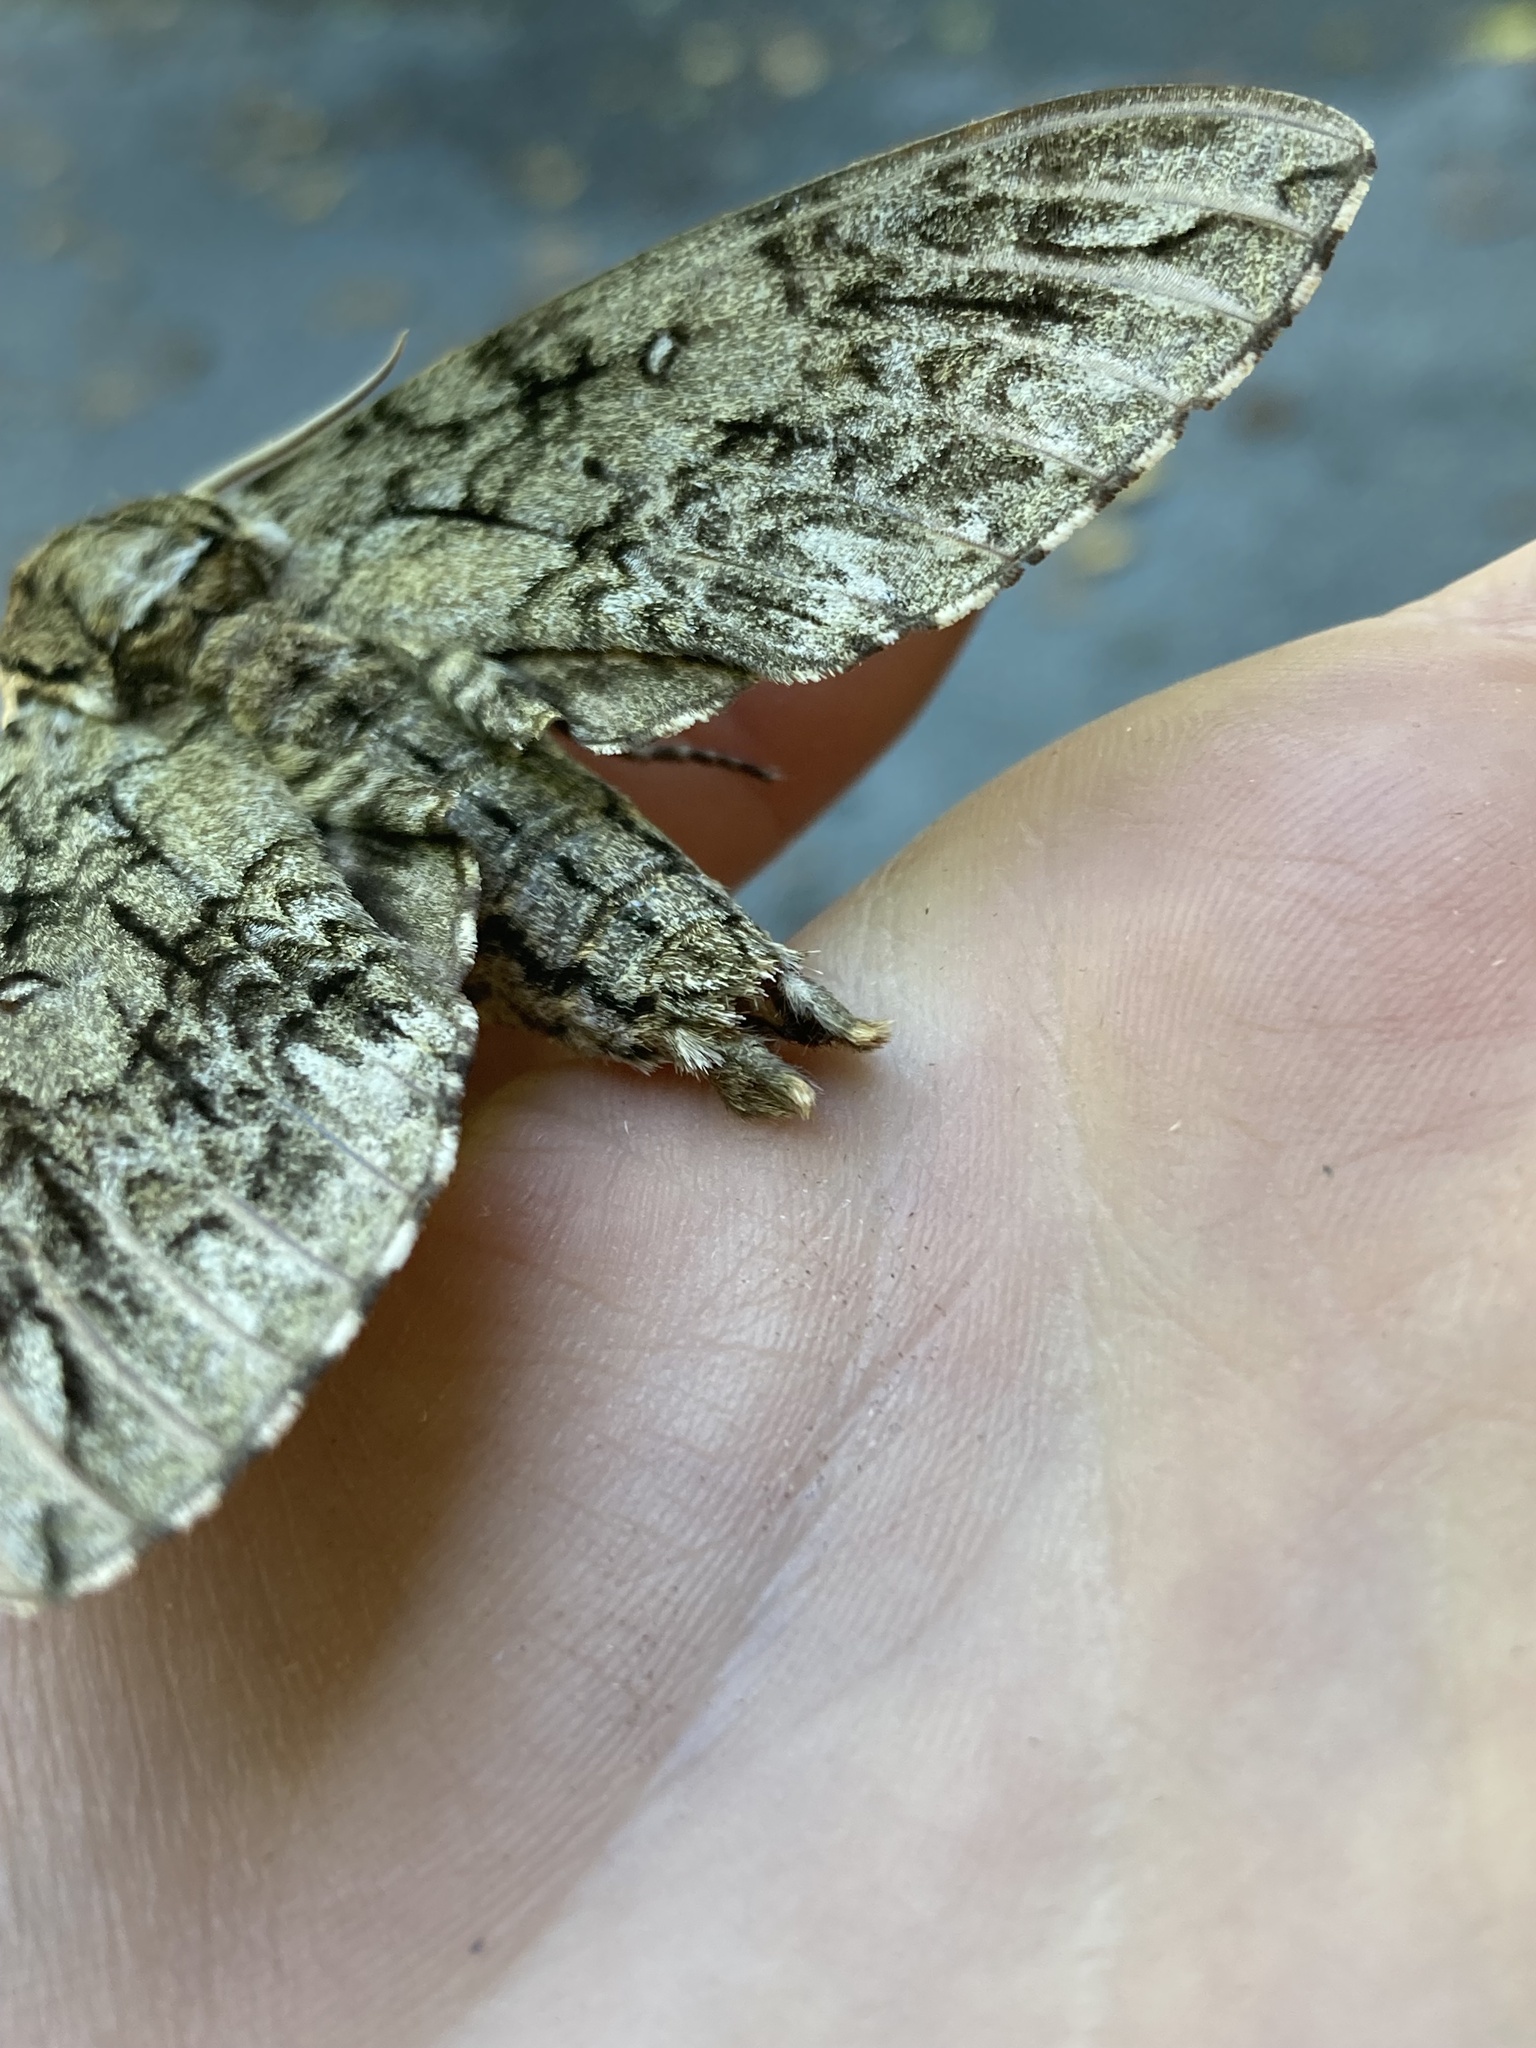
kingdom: Animalia
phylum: Arthropoda
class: Insecta
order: Lepidoptera
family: Sphingidae
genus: Ceratomia
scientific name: Ceratomia undulosa
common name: Waved sphinx
